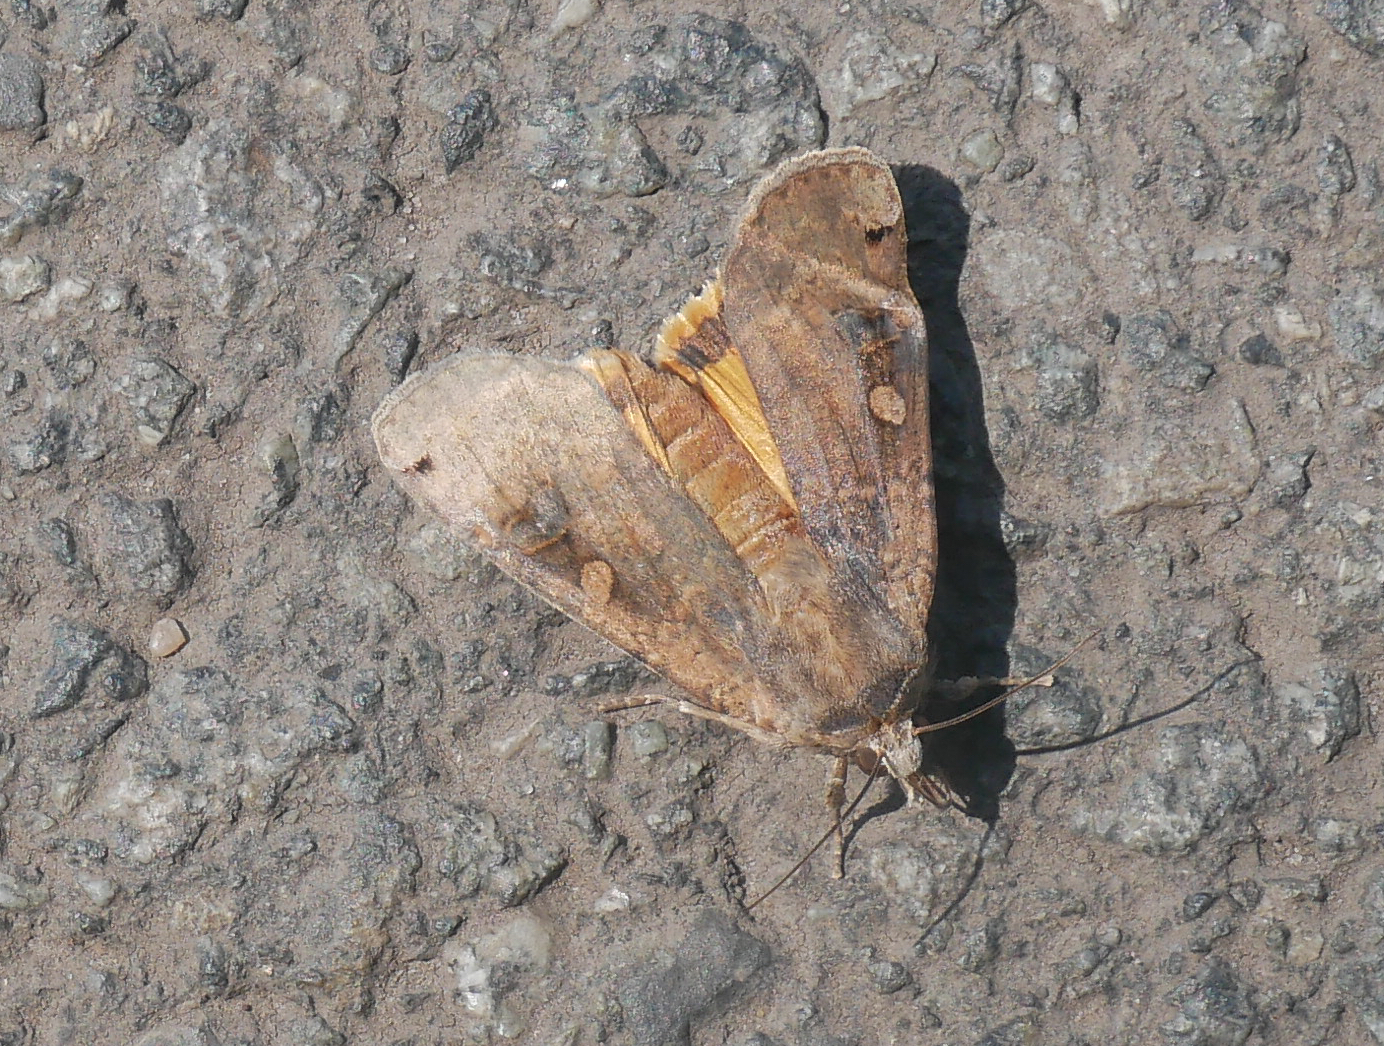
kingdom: Animalia
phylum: Arthropoda
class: Insecta
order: Lepidoptera
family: Noctuidae
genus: Noctua
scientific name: Noctua pronuba
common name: Large yellow underwing
